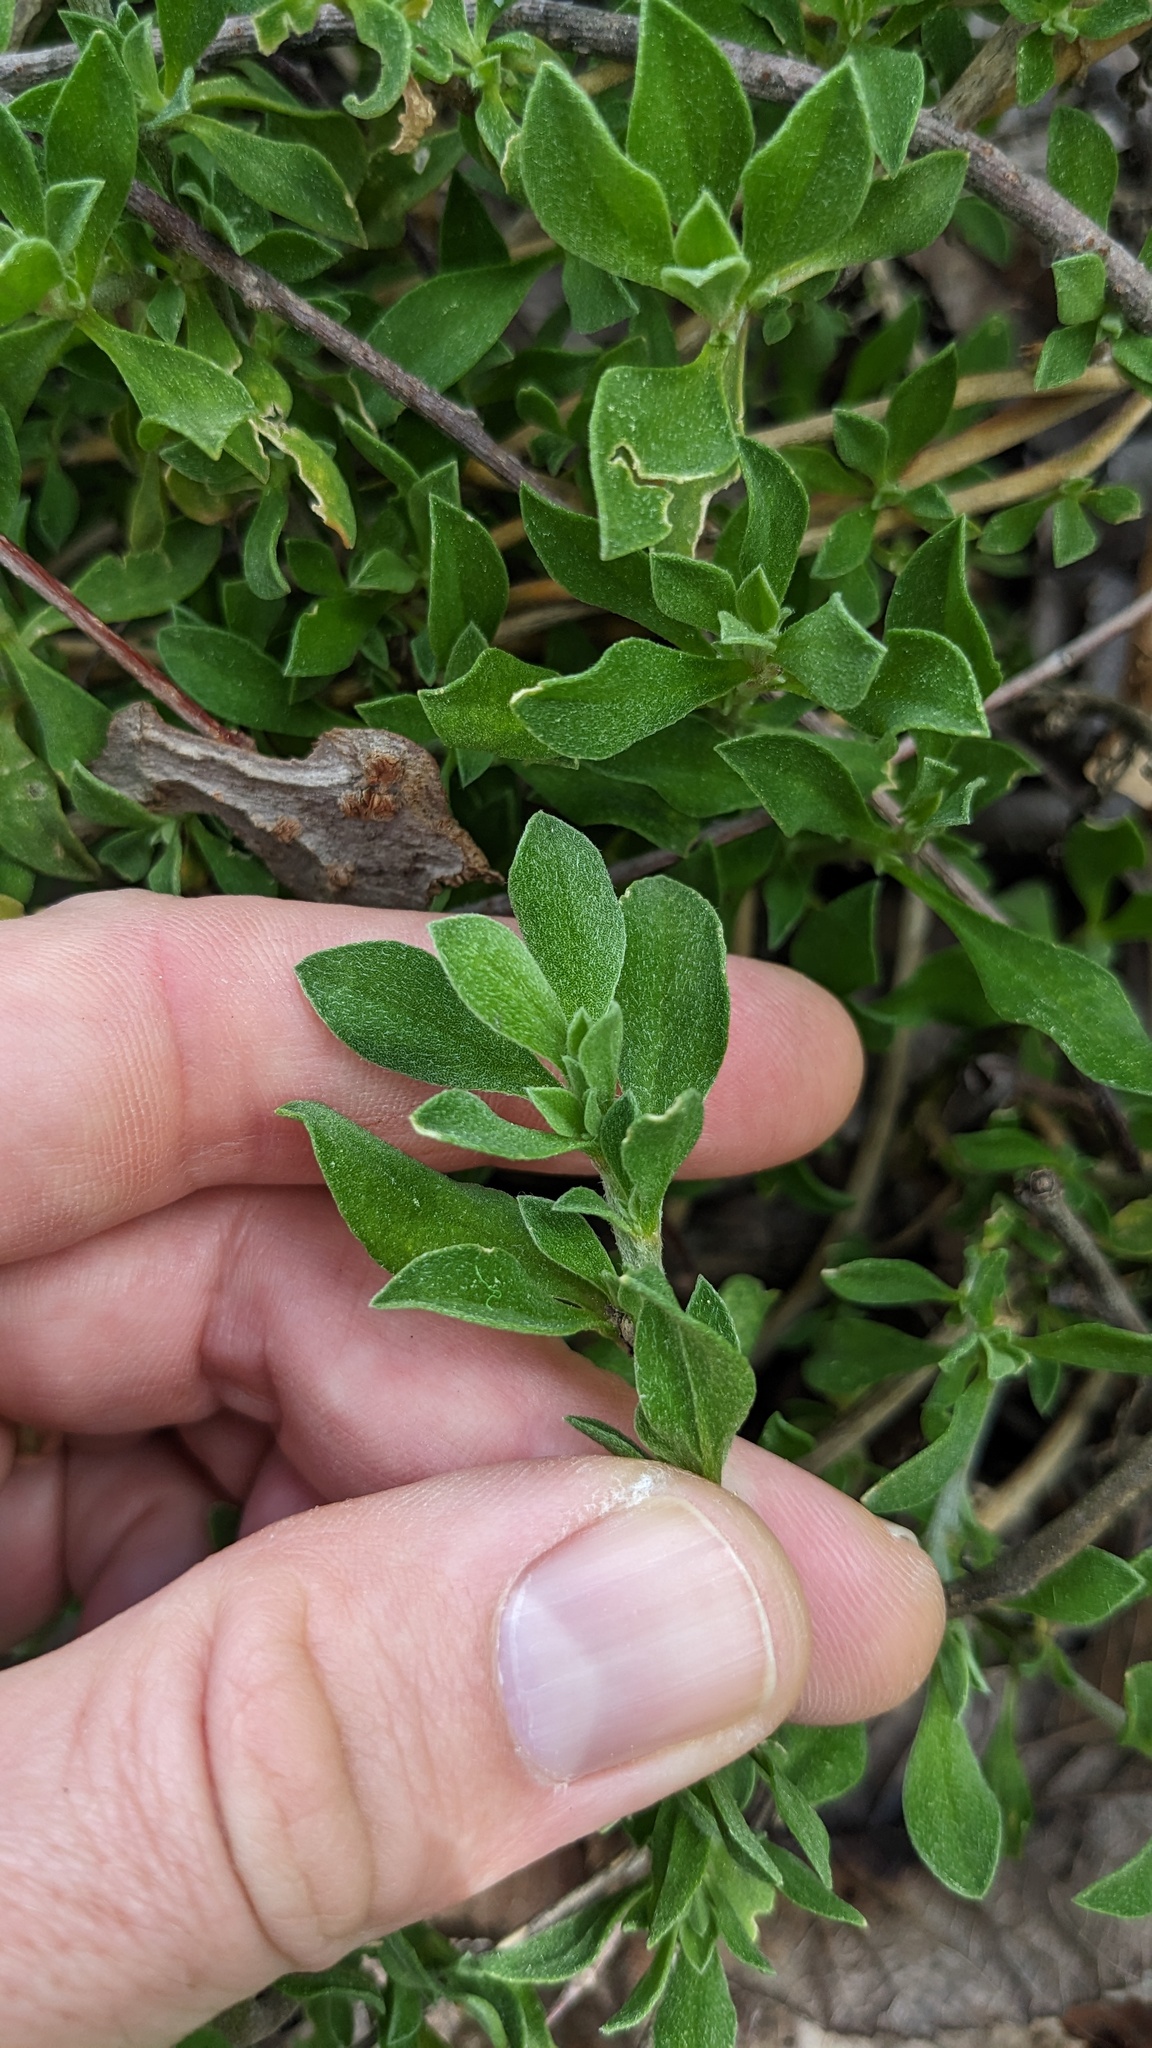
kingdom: Plantae
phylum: Tracheophyta
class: Magnoliopsida
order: Caryophyllales
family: Aizoaceae
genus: Aizoon
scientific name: Aizoon pubescens
